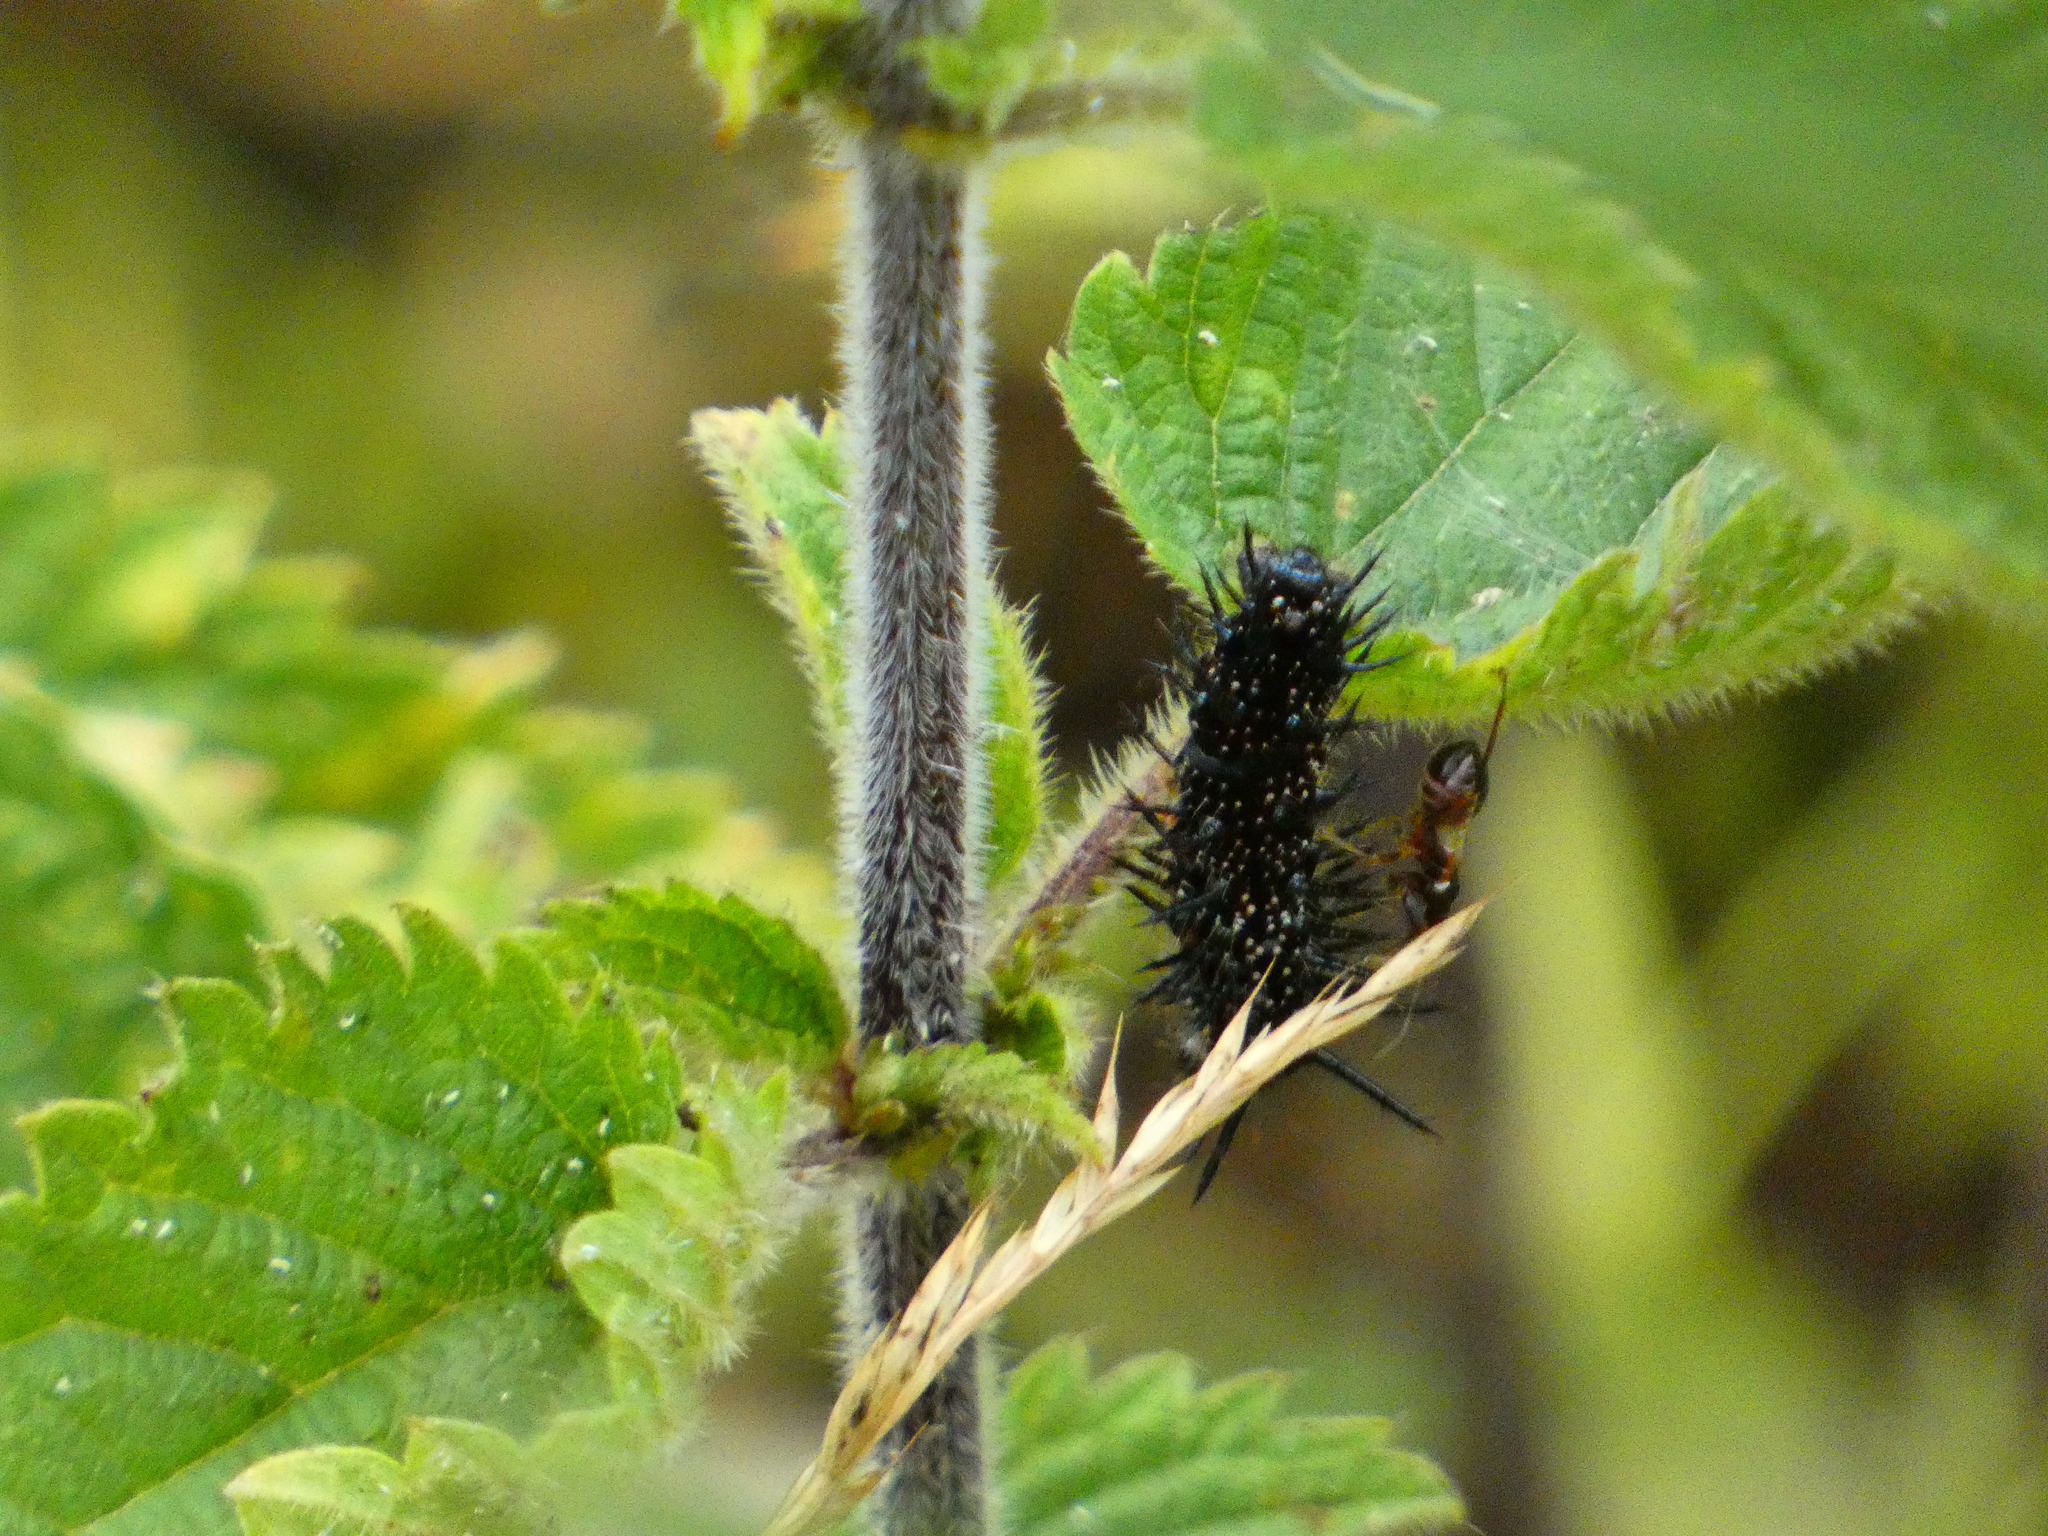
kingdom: Animalia
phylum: Arthropoda
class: Insecta
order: Lepidoptera
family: Nymphalidae
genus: Aglais
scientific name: Aglais io
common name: Peacock
